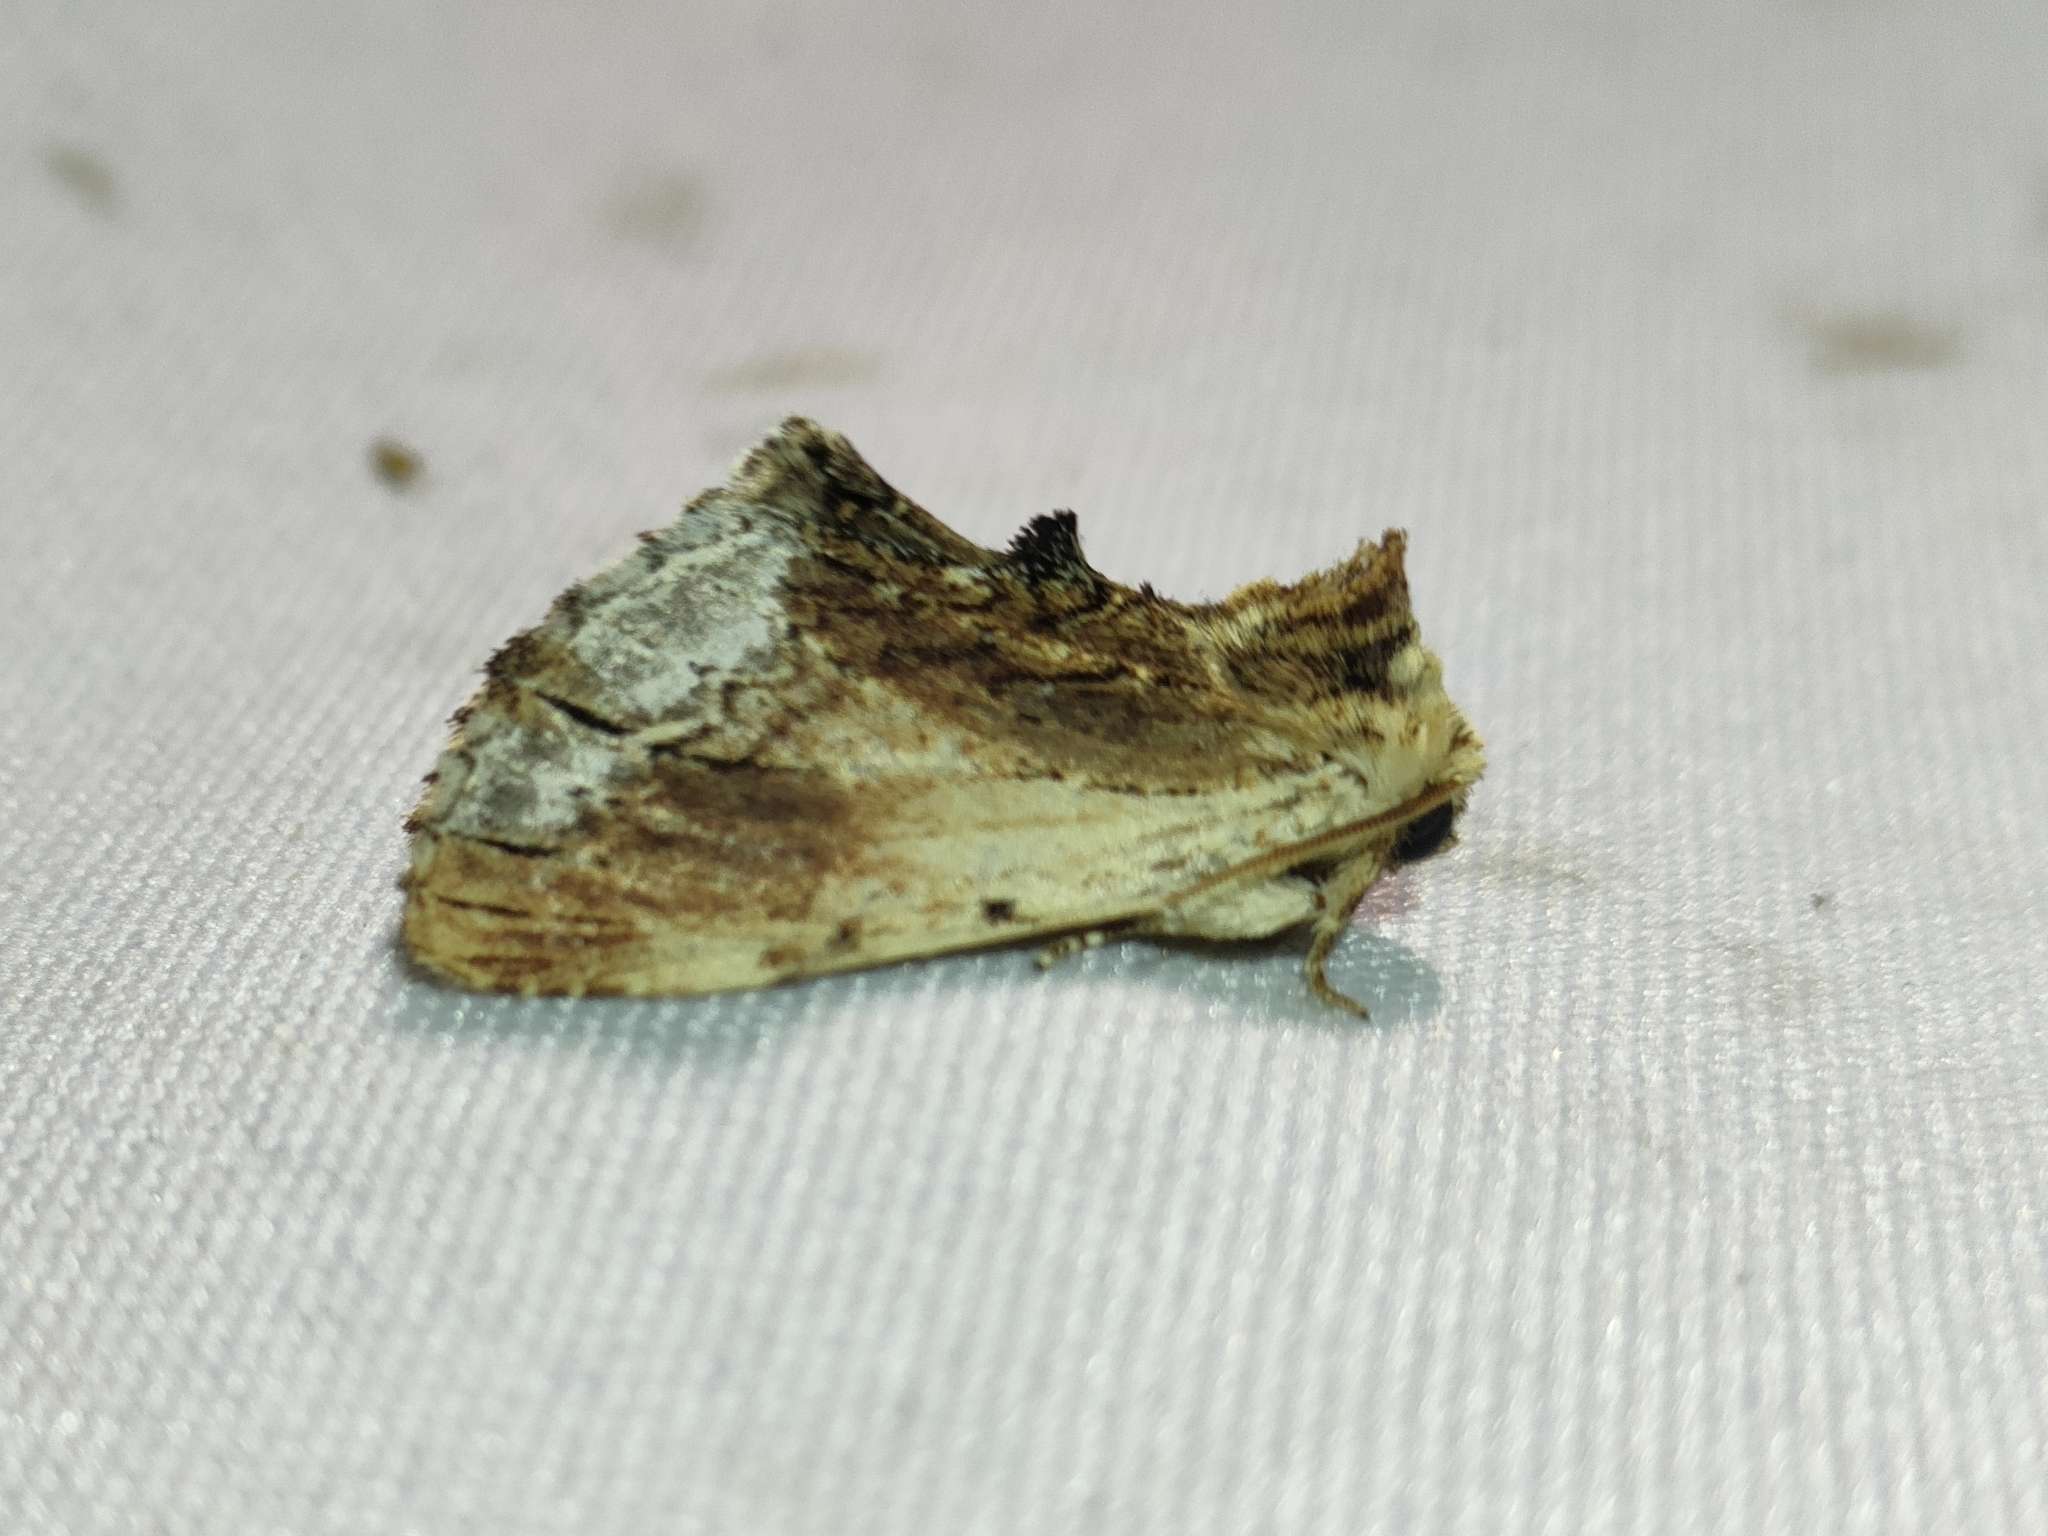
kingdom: Animalia
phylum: Arthropoda
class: Insecta
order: Lepidoptera
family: Notodontidae
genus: Ptilodon
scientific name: Ptilodon cucullina
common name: Maple prominent
